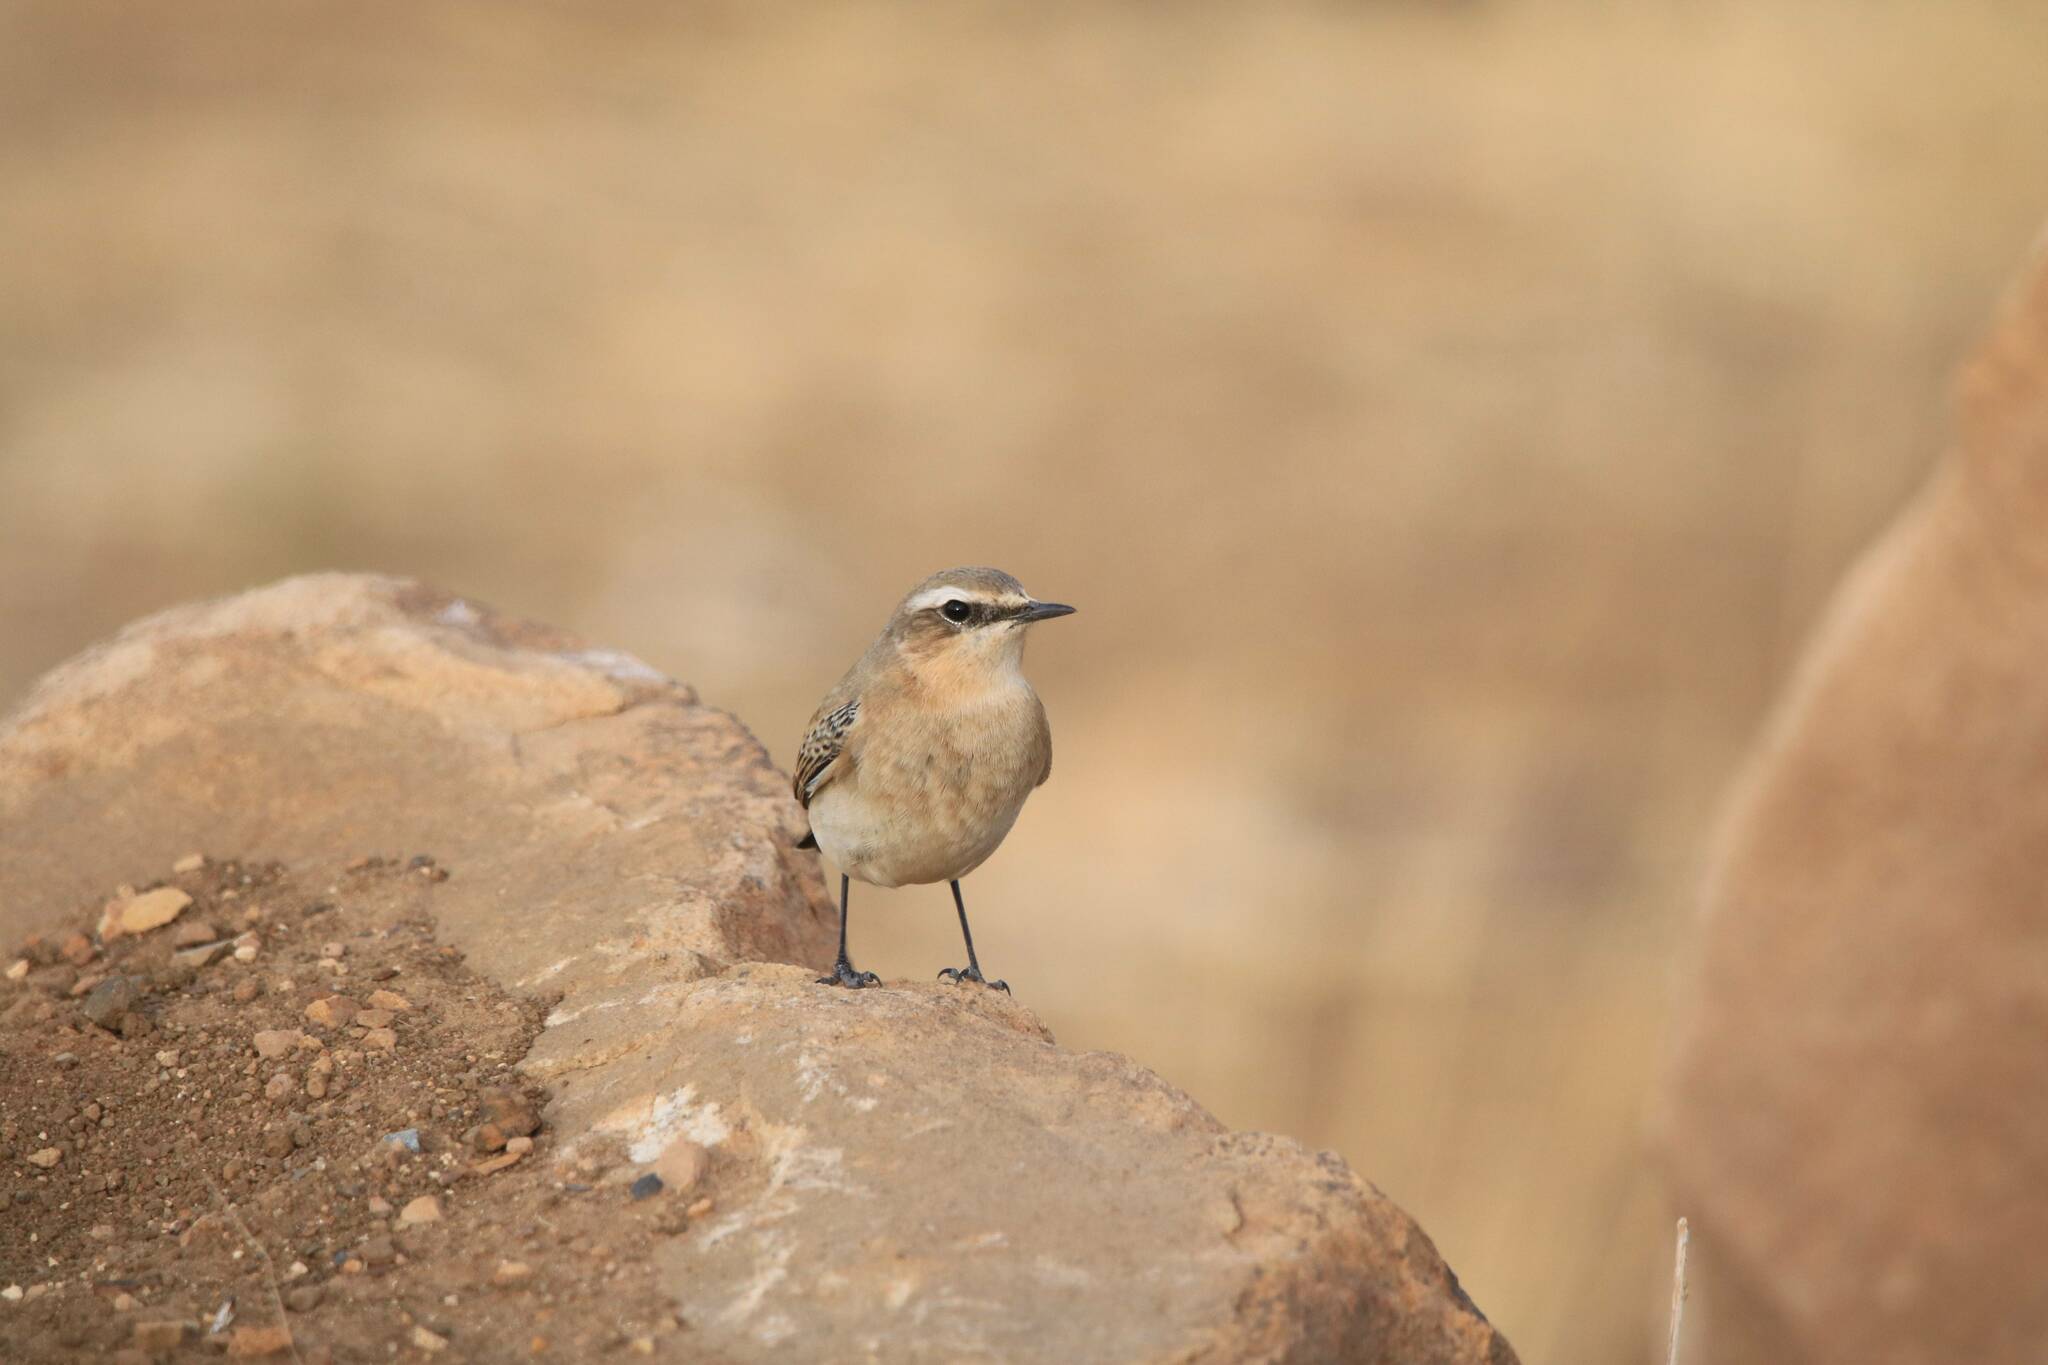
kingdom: Animalia
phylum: Chordata
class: Aves
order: Passeriformes
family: Muscicapidae
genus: Oenanthe
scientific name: Oenanthe oenanthe
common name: Northern wheatear
